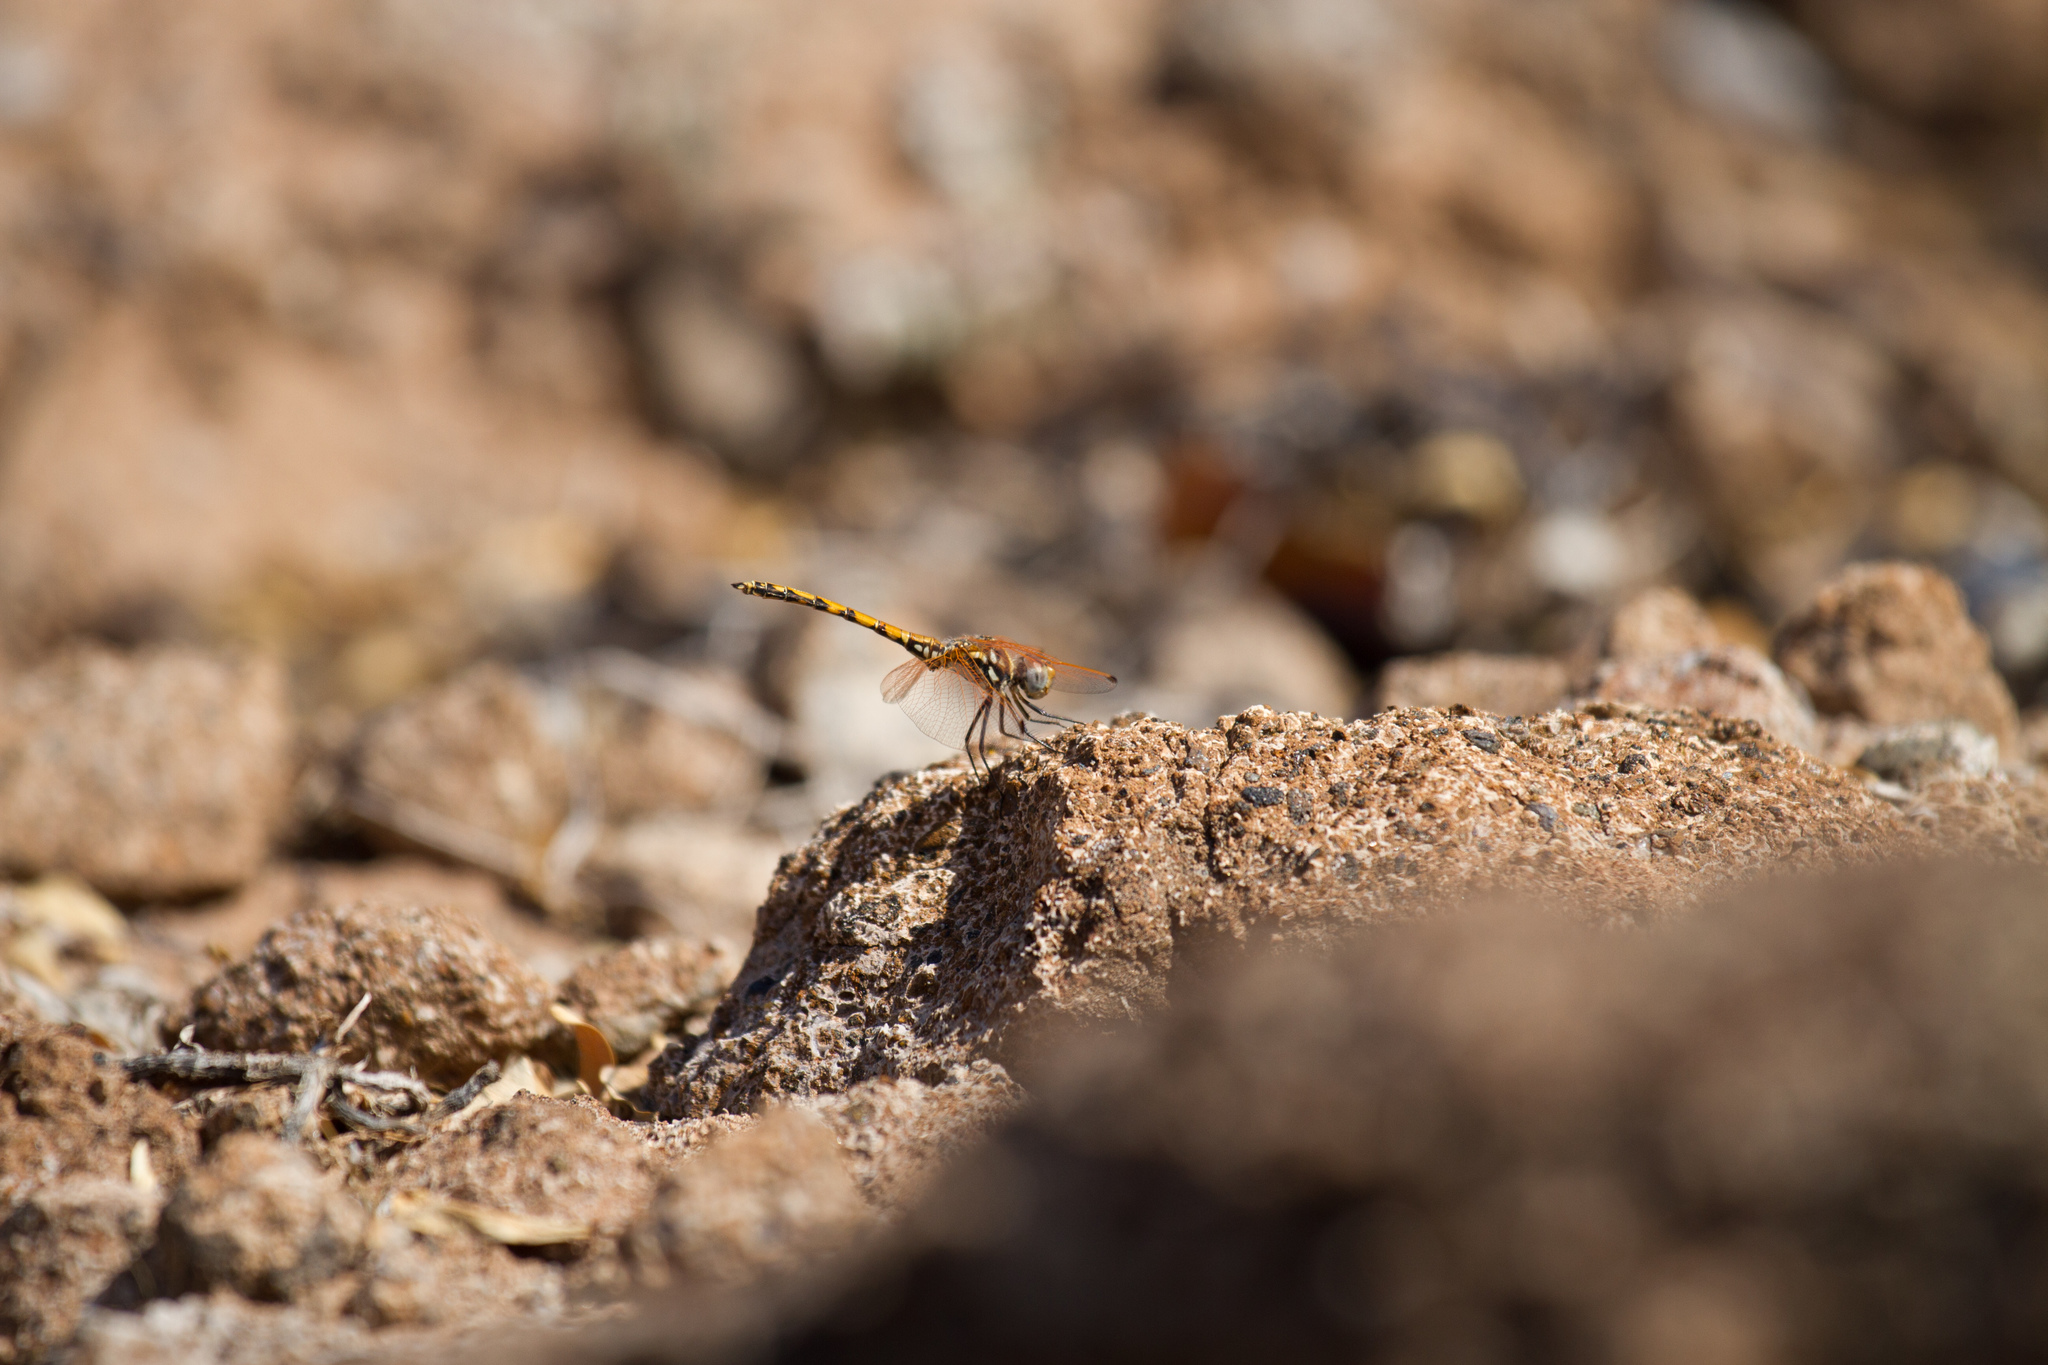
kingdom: Animalia
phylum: Arthropoda
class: Insecta
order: Odonata
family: Libellulidae
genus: Trithemis
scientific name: Trithemis arteriosa
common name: Red-veined dropwing
